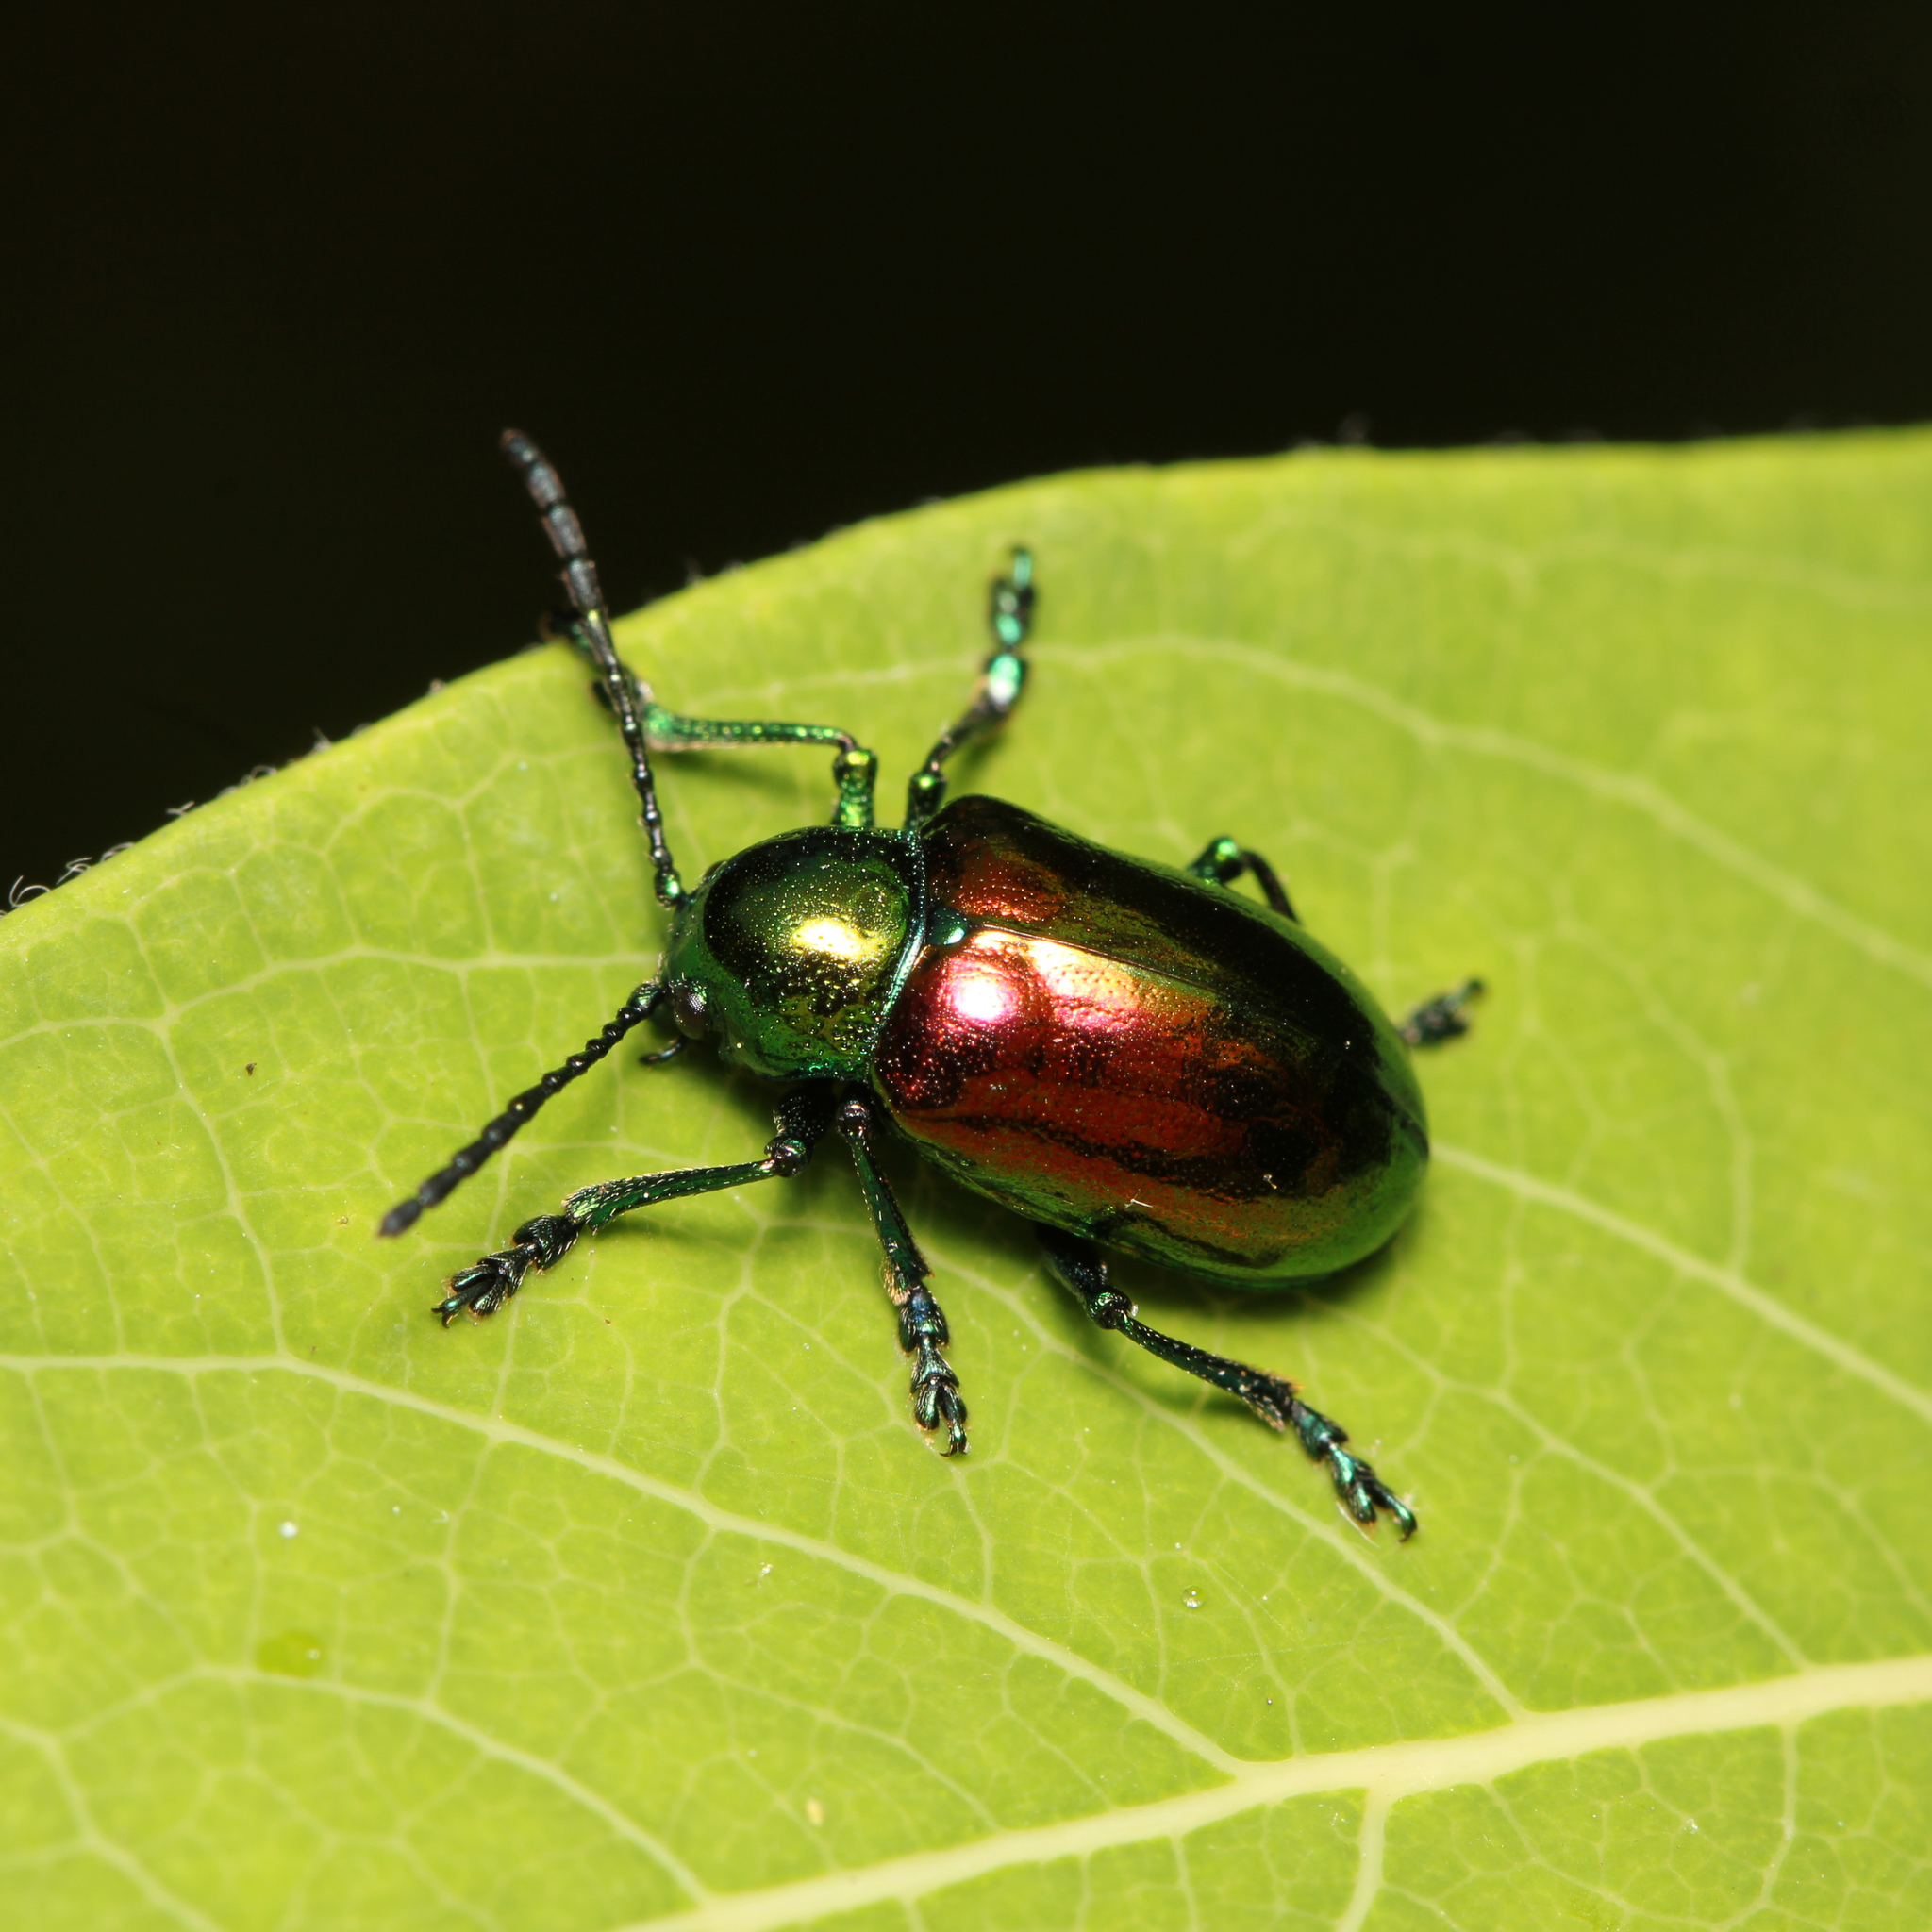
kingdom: Animalia
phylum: Arthropoda
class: Insecta
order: Coleoptera
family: Chrysomelidae
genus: Chrysochus
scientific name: Chrysochus auratus
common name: Dogbane leaf beetle
